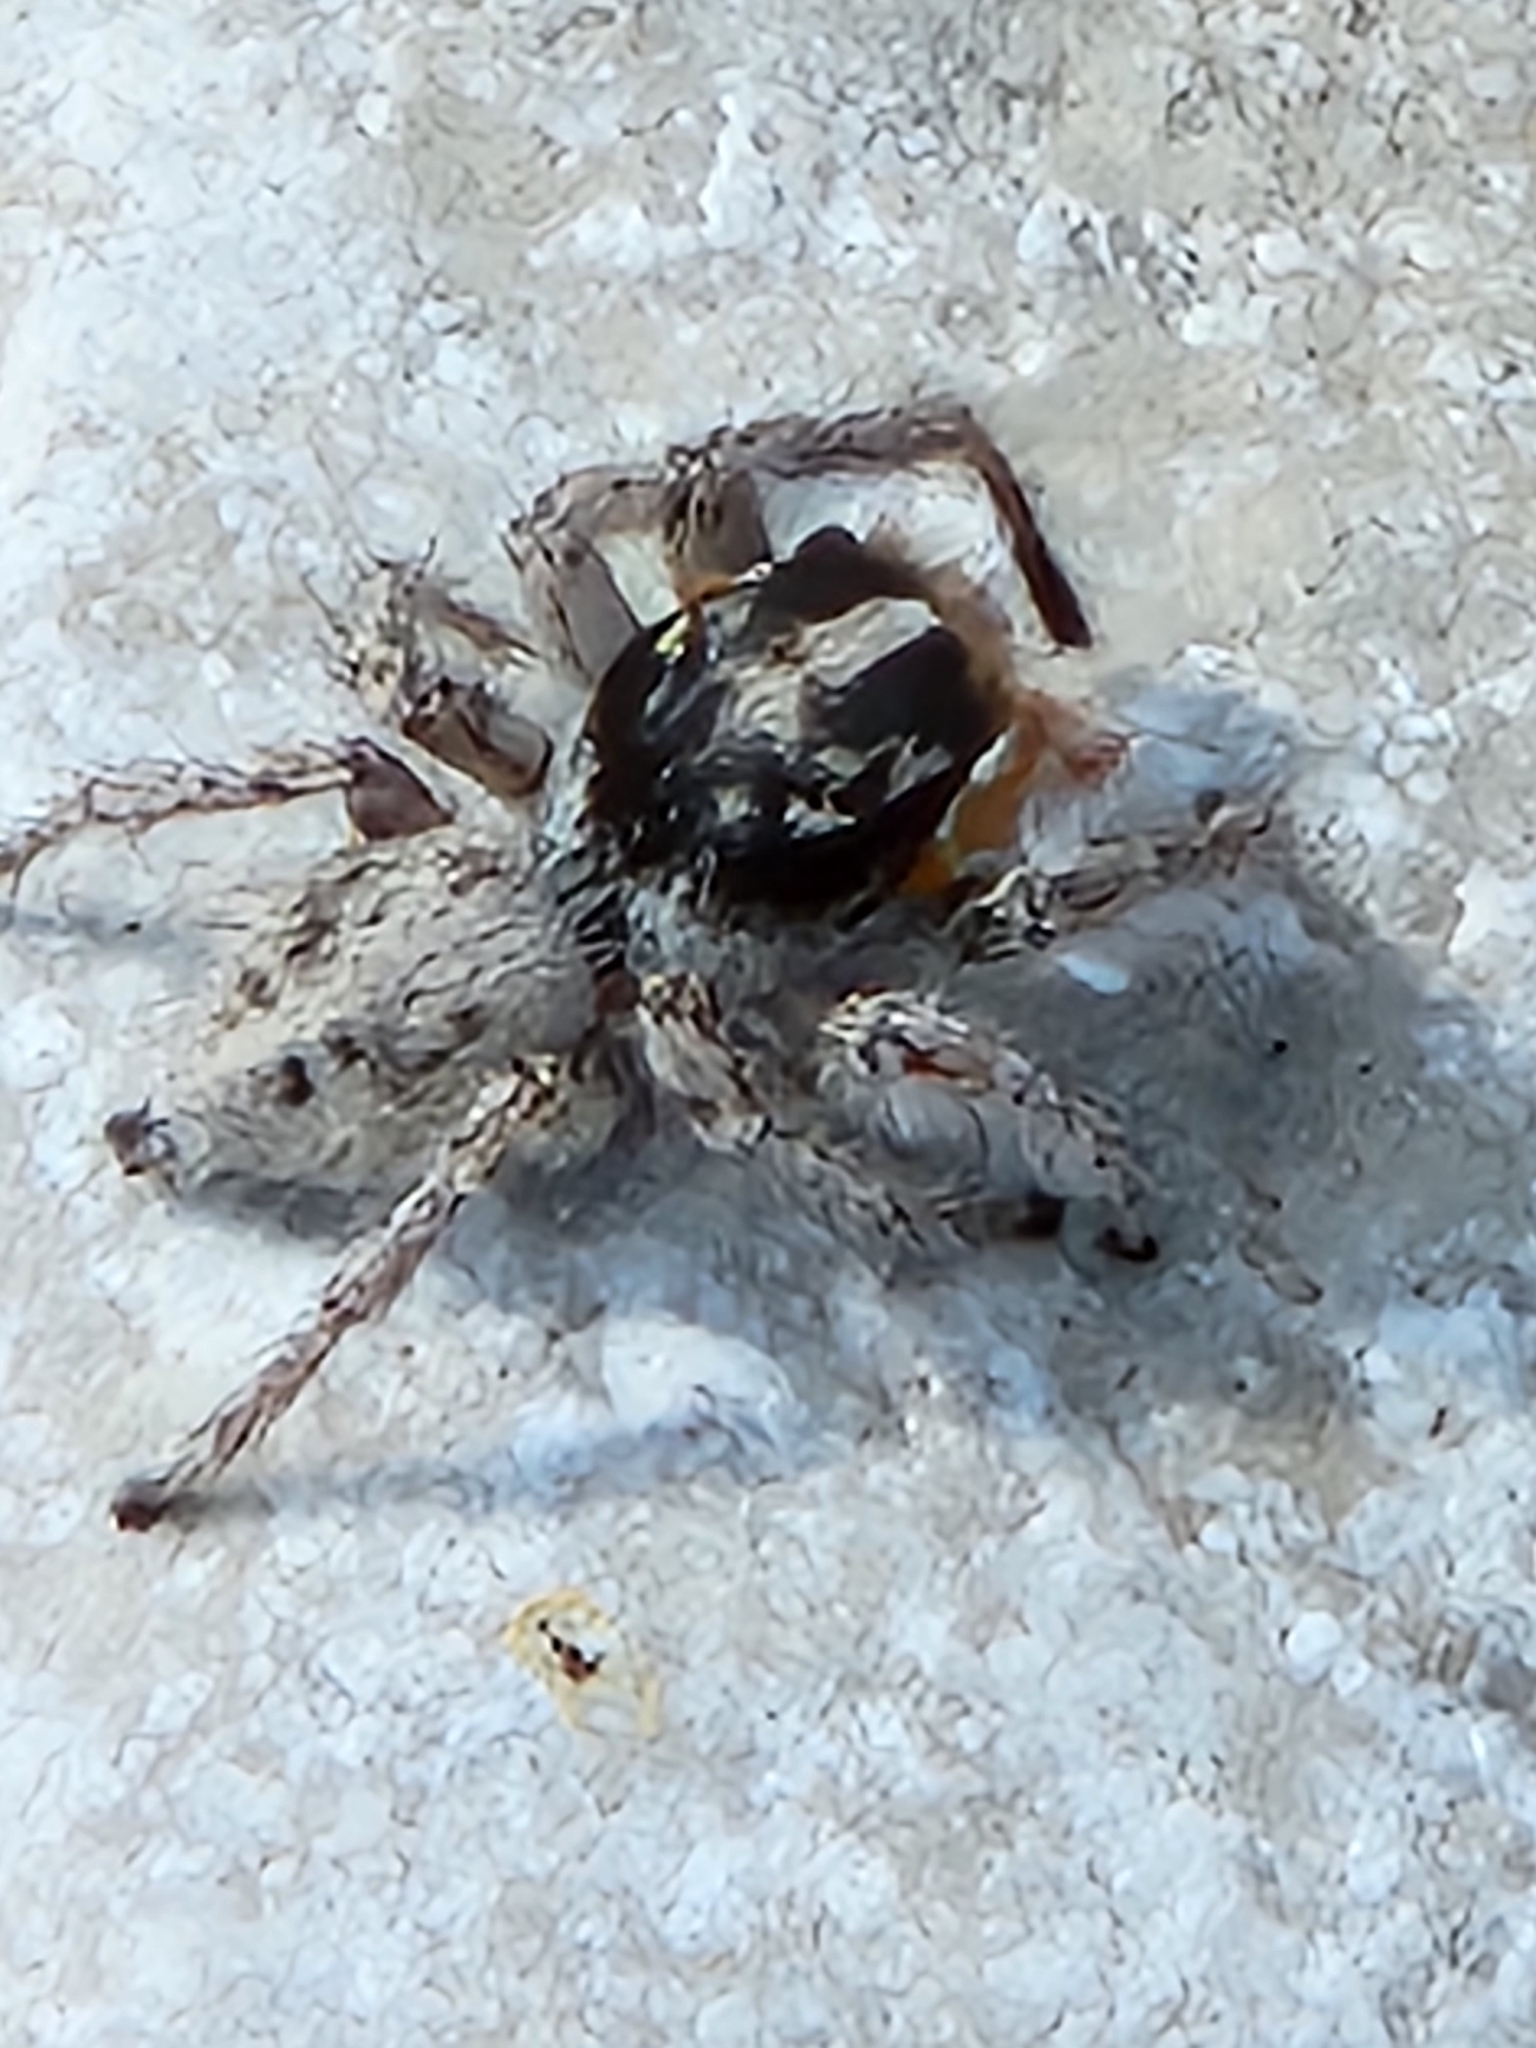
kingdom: Animalia
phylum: Arthropoda
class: Arachnida
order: Araneae
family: Salticidae
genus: Habronattus
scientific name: Habronattus tuberculatus
